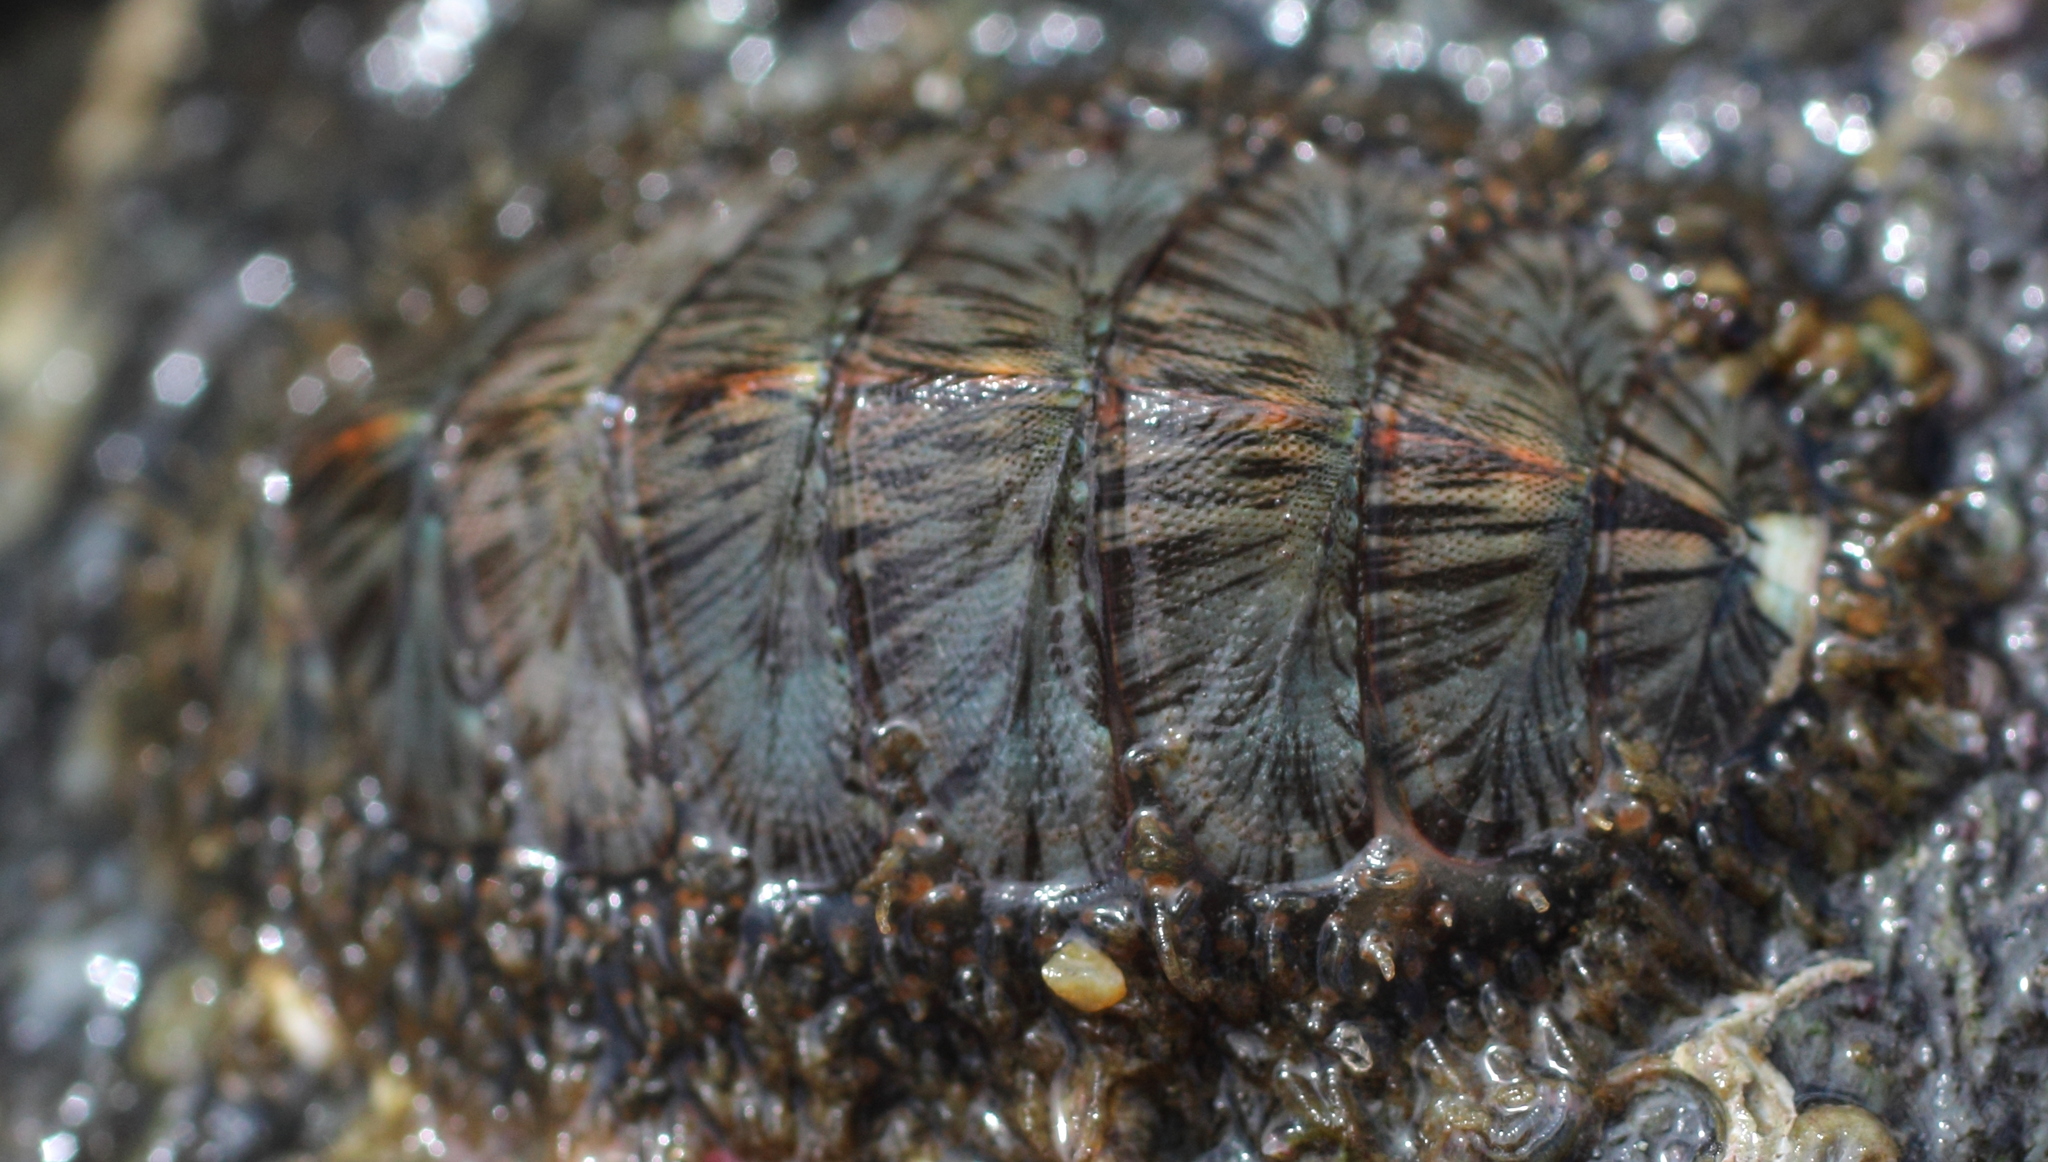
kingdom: Animalia
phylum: Mollusca
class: Polyplacophora
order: Chitonida
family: Mopaliidae
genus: Mopalia
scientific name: Mopalia lignosa
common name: Woody chiton
